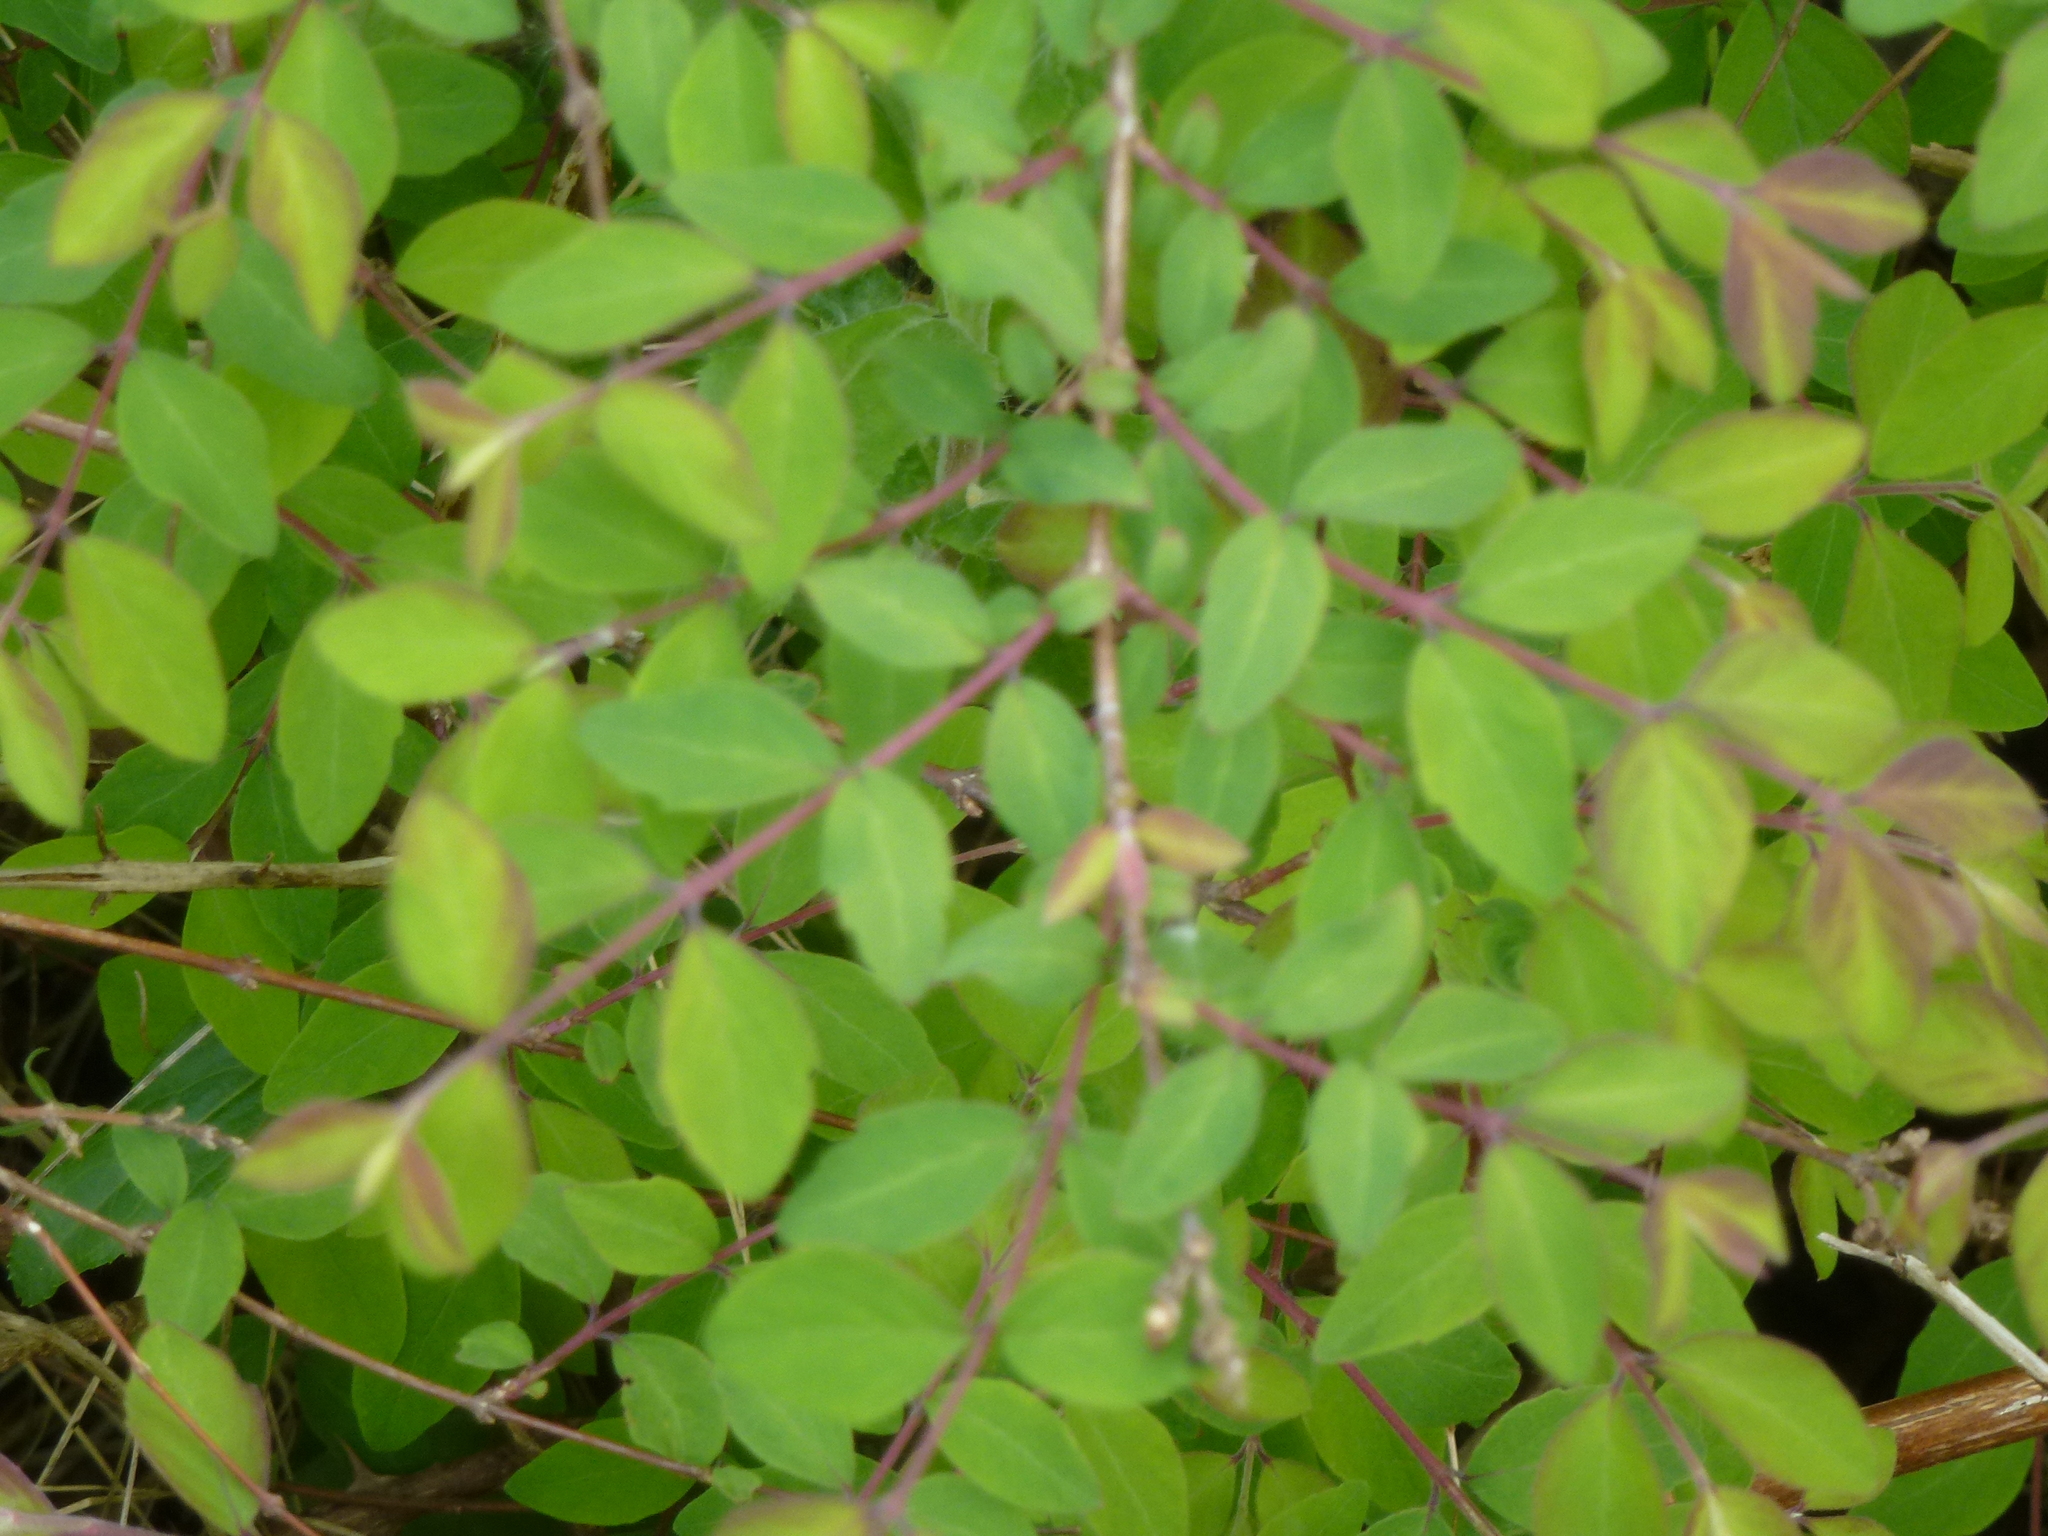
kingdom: Plantae
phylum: Tracheophyta
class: Magnoliopsida
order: Dipsacales
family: Caprifoliaceae
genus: Symphoricarpos
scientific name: Symphoricarpos orbiculatus
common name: Coralberry
